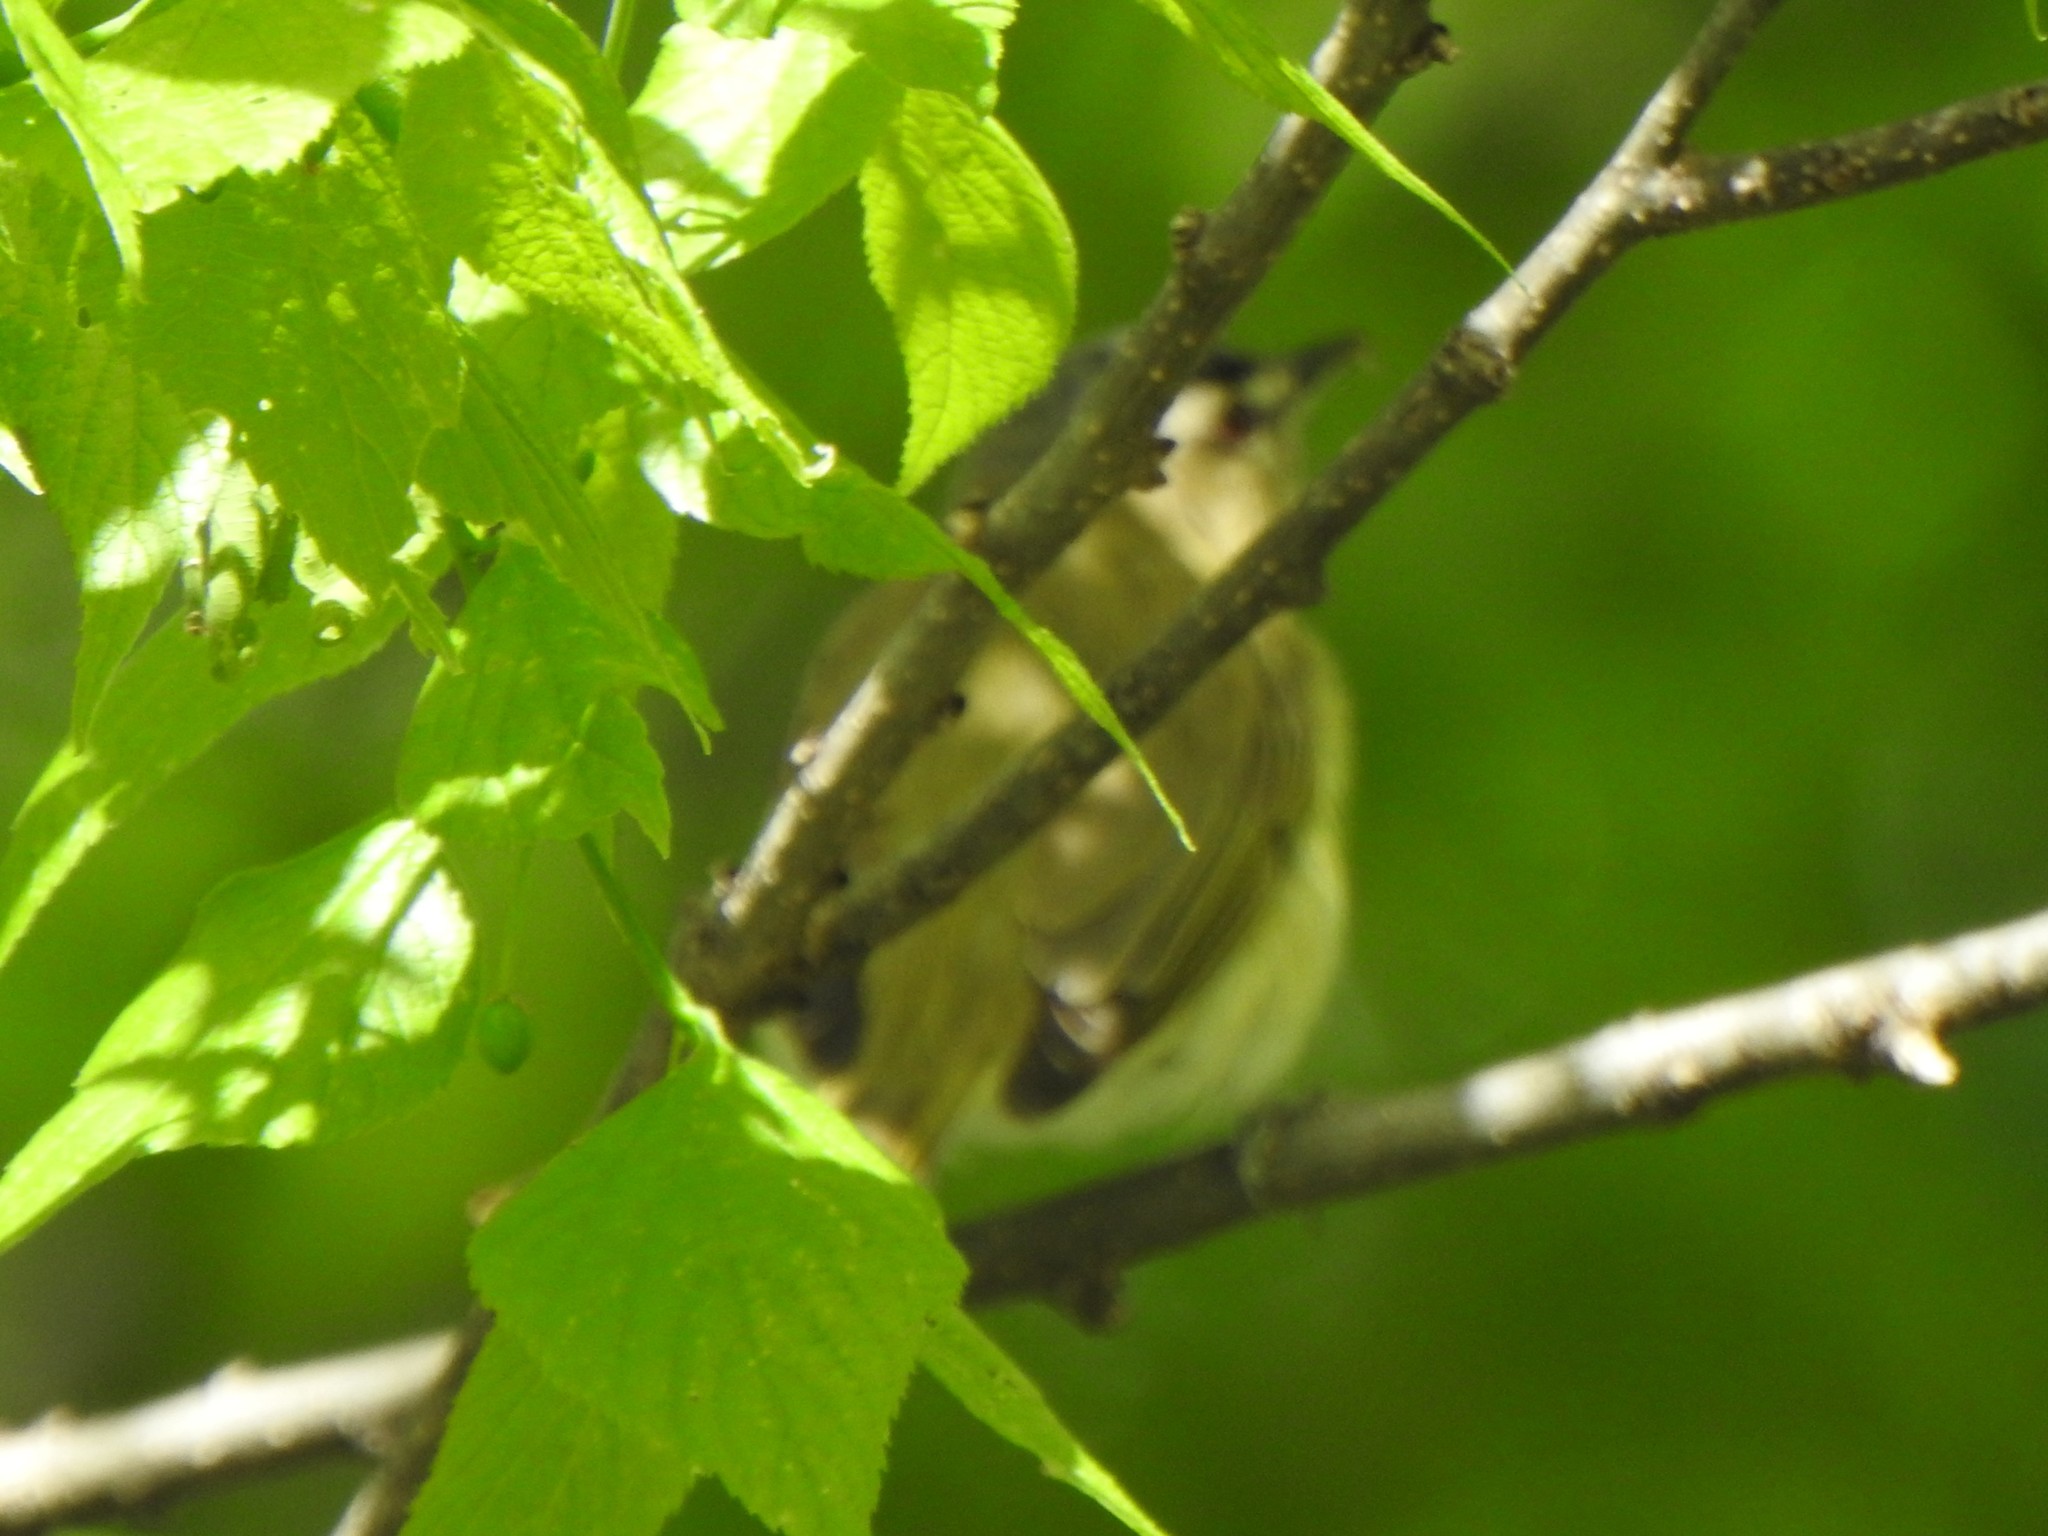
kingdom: Animalia
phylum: Chordata
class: Aves
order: Passeriformes
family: Vireonidae
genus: Vireo
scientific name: Vireo olivaceus
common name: Red-eyed vireo
